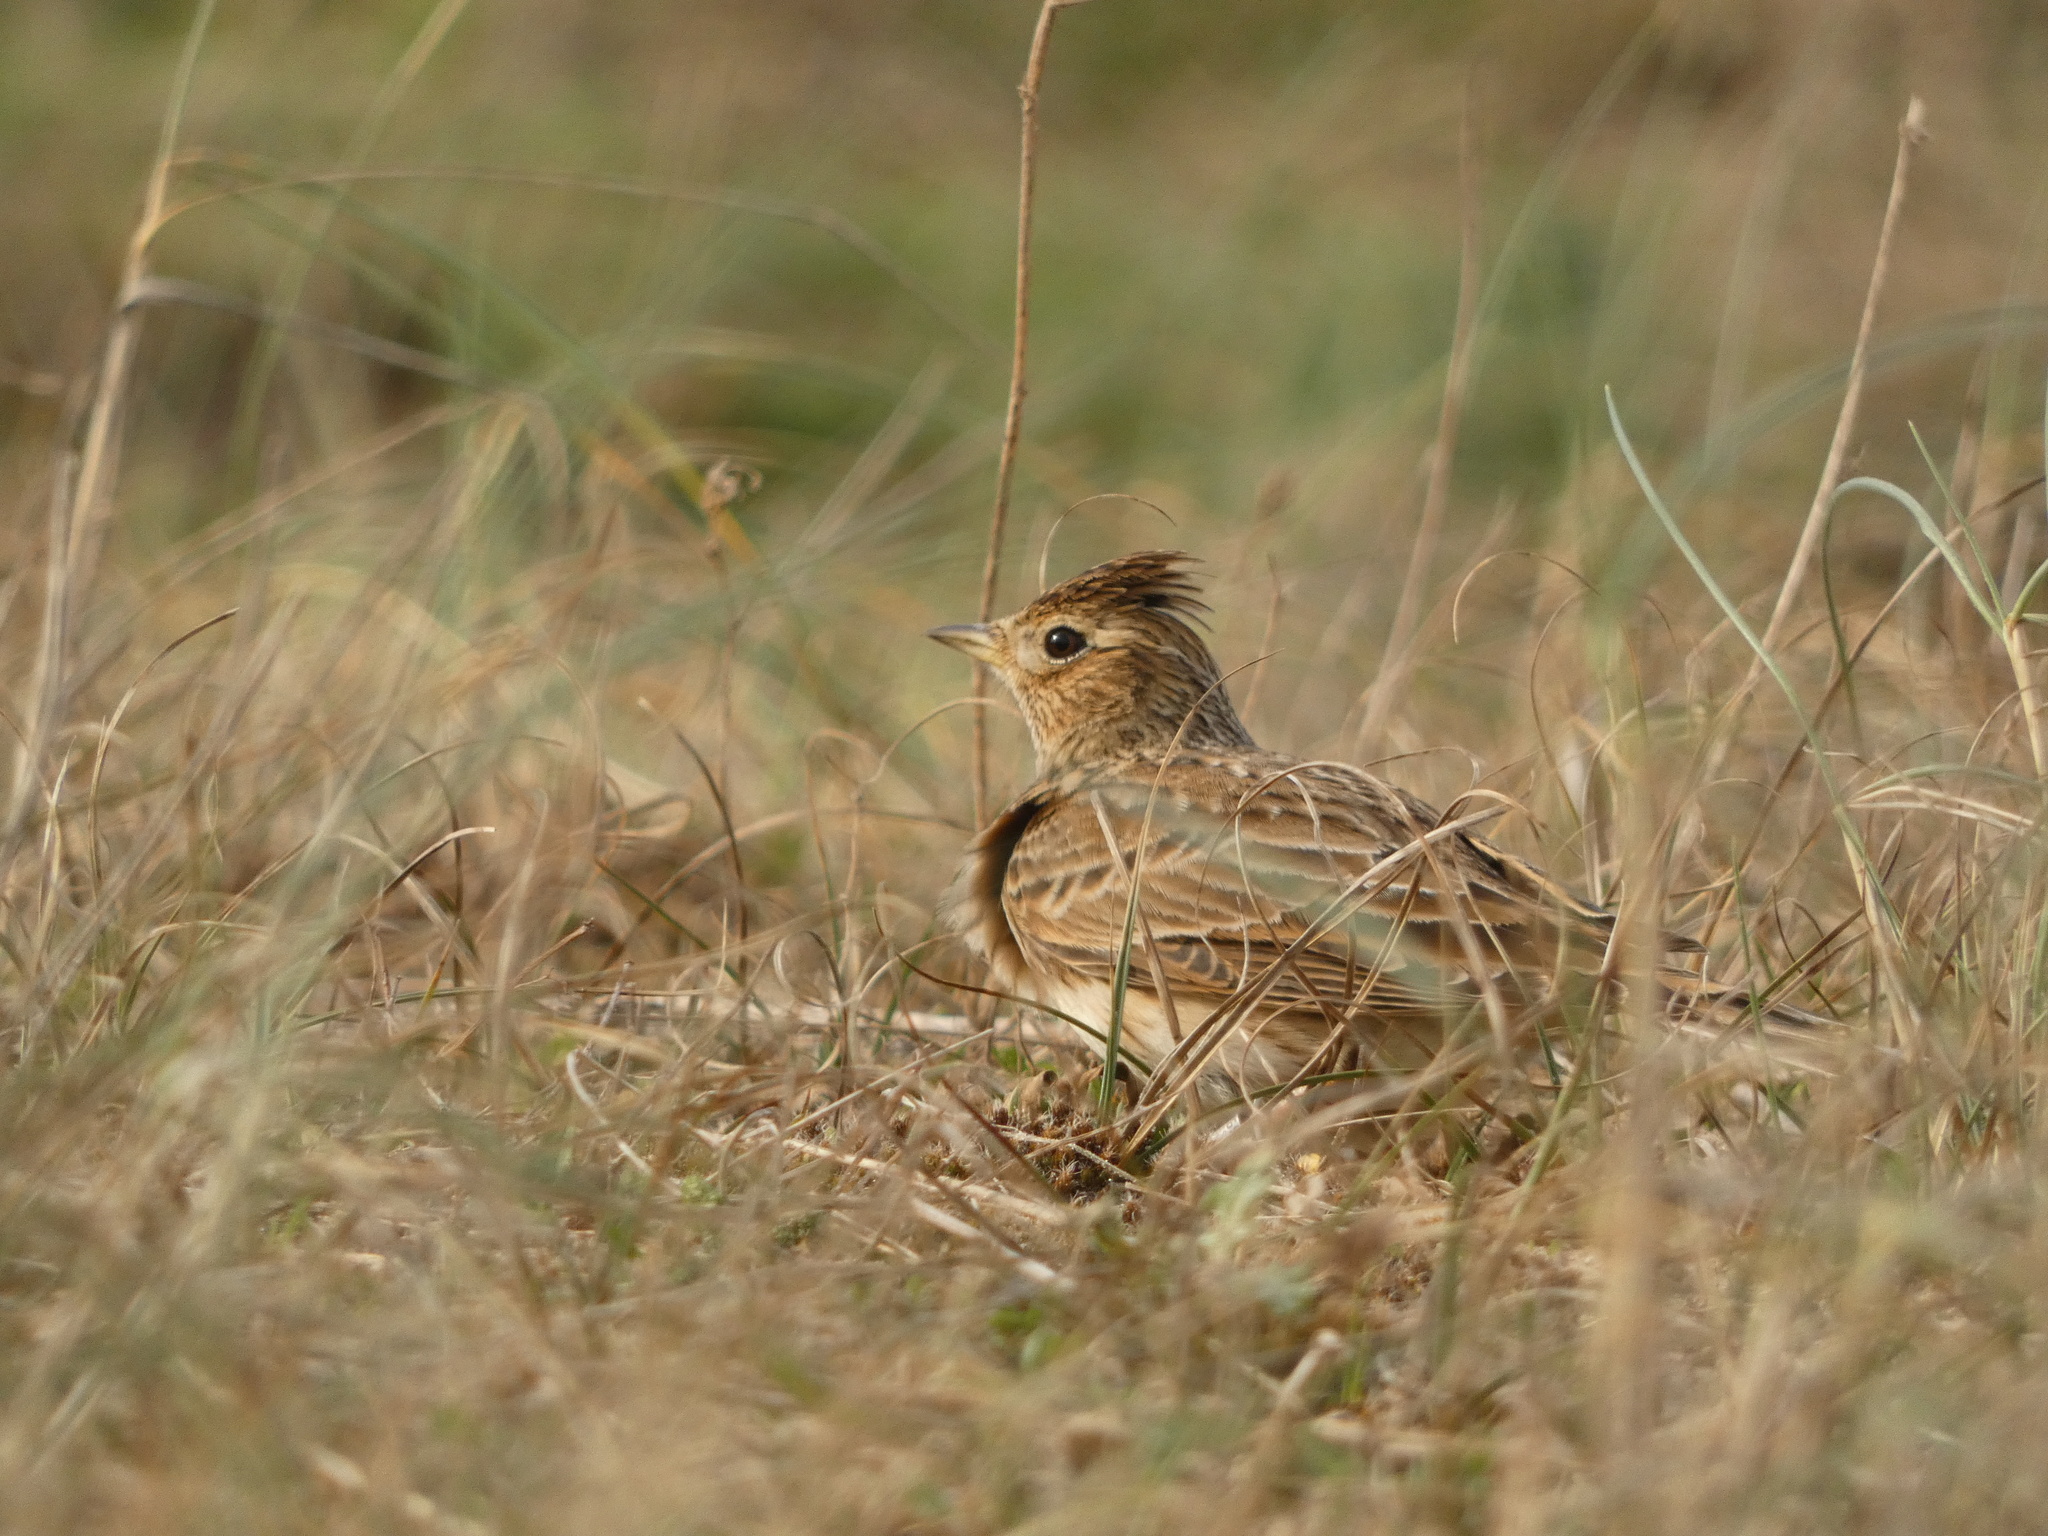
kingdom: Animalia
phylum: Chordata
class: Aves
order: Passeriformes
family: Alaudidae
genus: Alauda
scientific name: Alauda arvensis
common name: Eurasian skylark
